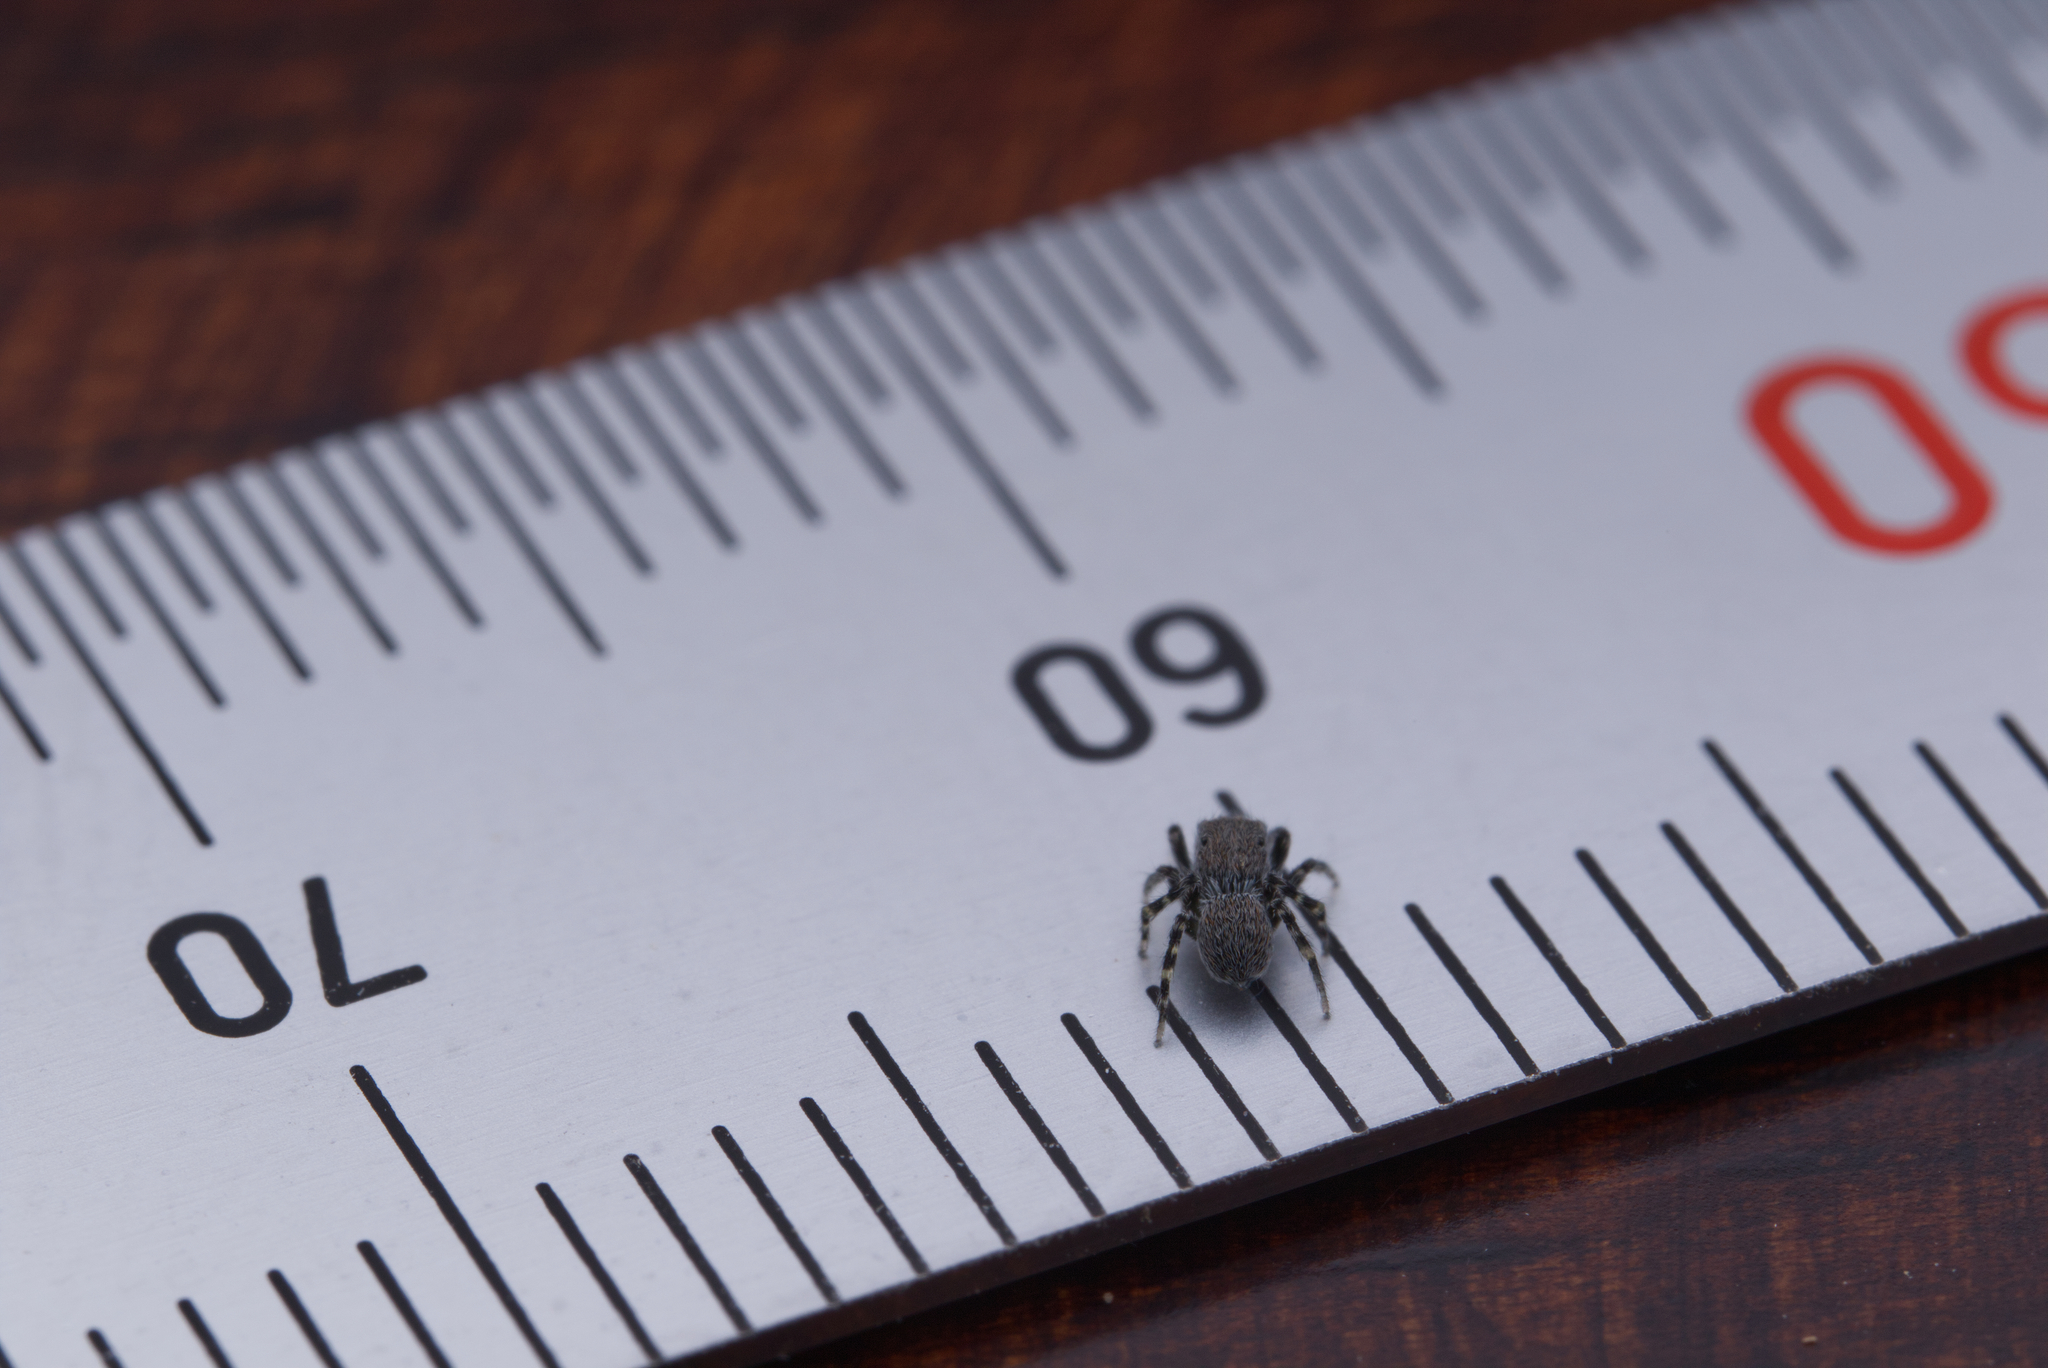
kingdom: Animalia
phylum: Arthropoda
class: Arachnida
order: Araneae
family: Salticidae
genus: Talavera
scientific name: Talavera minuta
